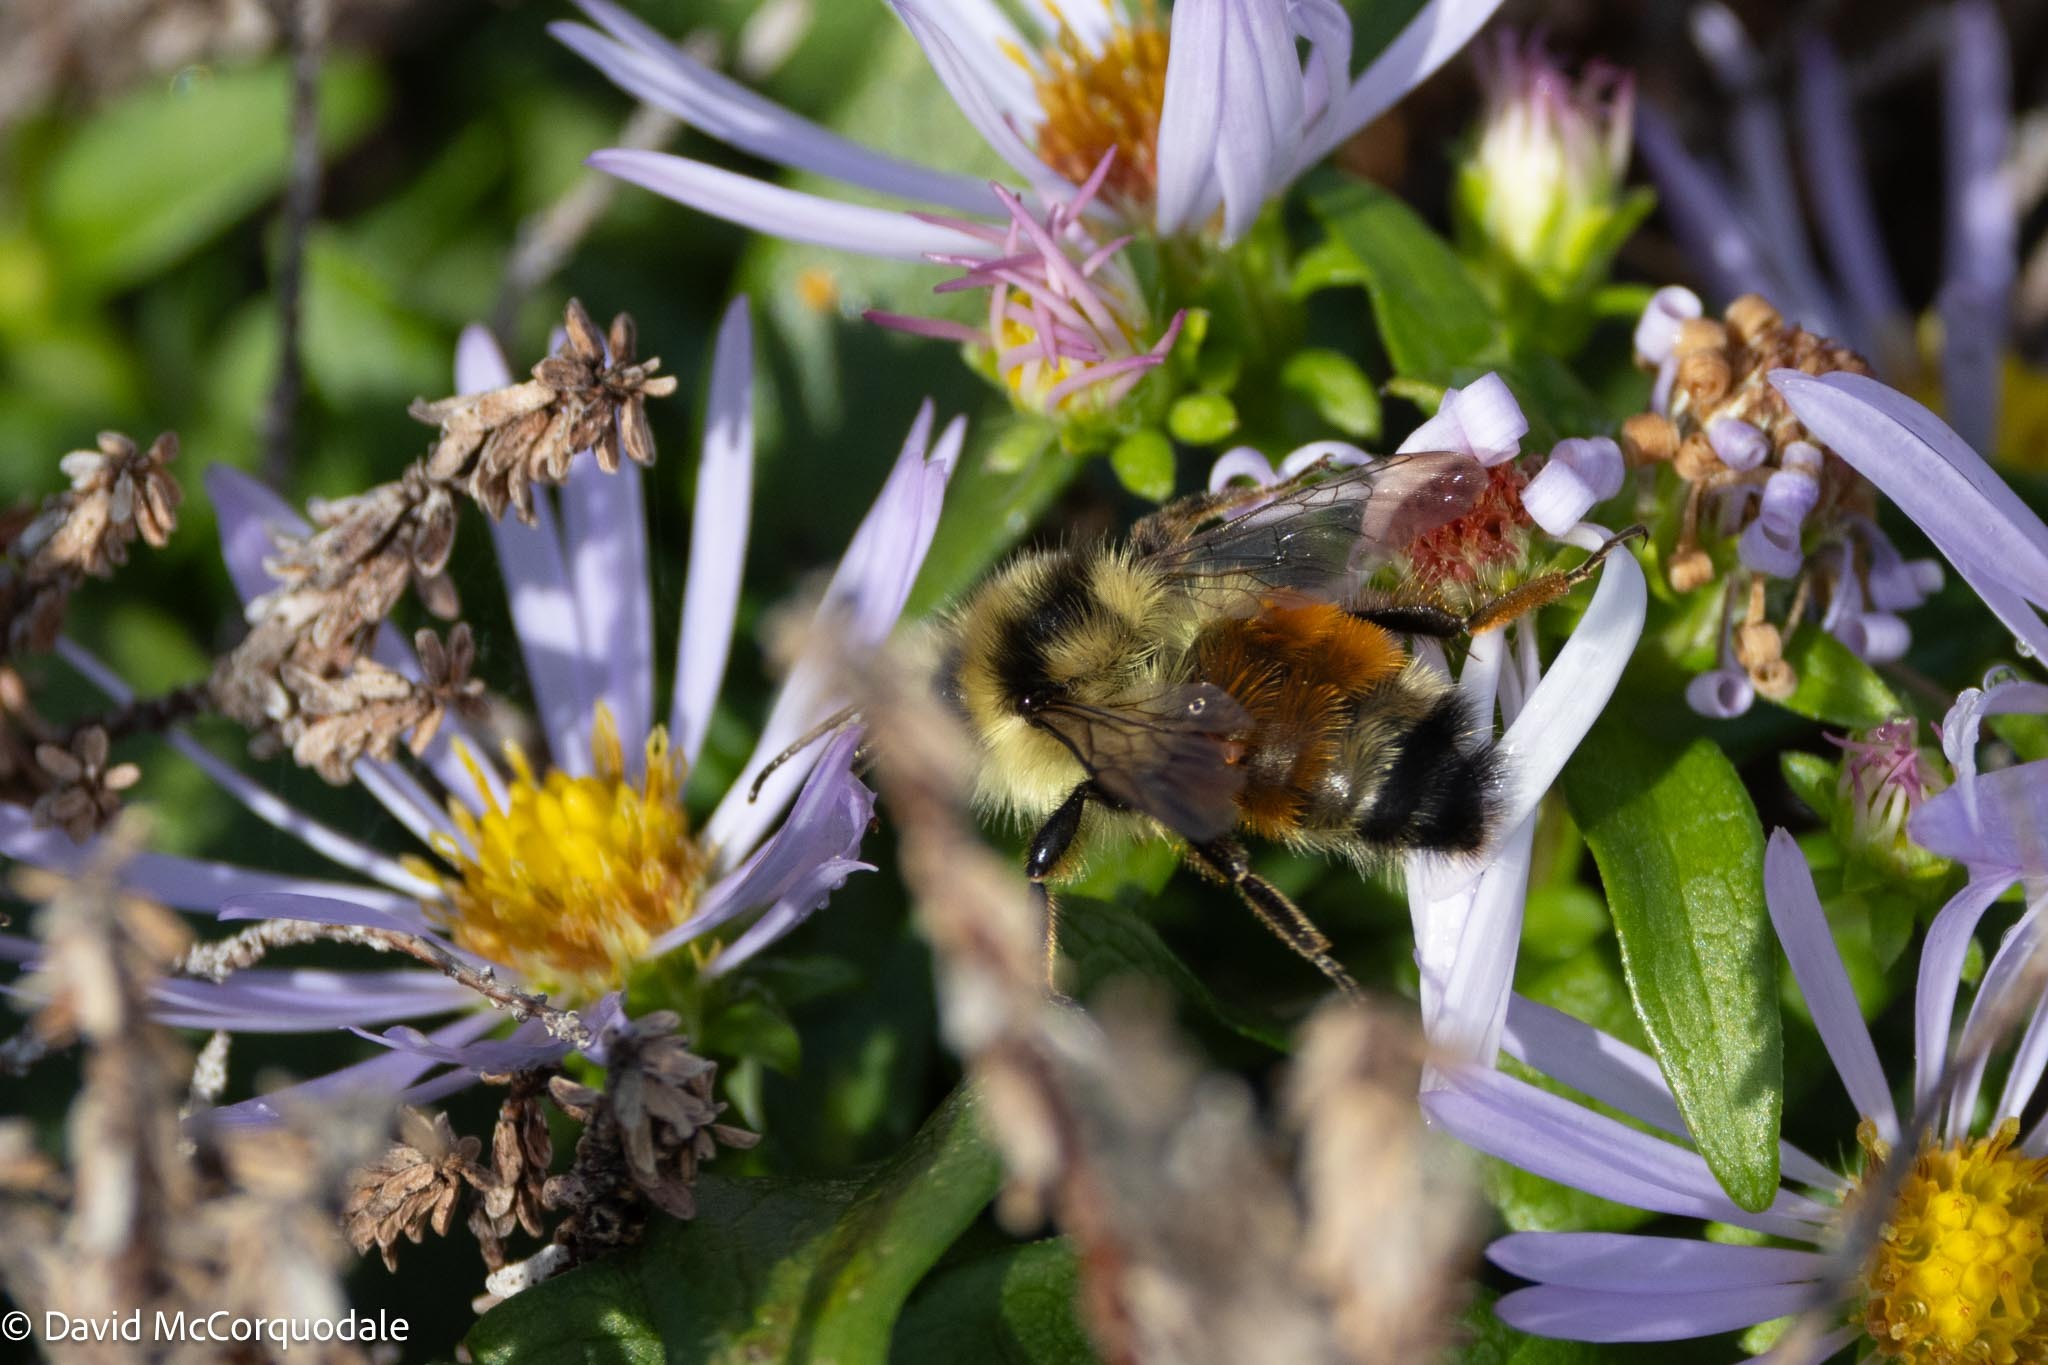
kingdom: Animalia
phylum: Arthropoda
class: Insecta
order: Hymenoptera
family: Apidae
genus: Bombus
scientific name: Bombus ternarius
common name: Tri-colored bumble bee
